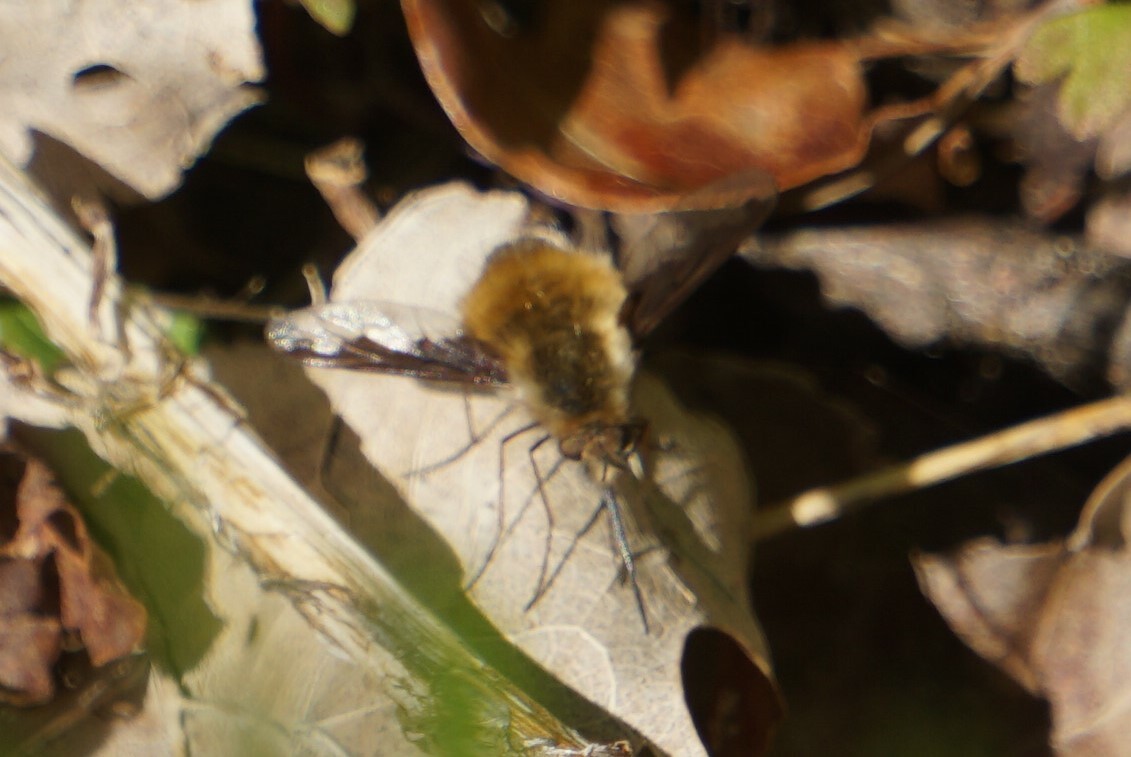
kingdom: Animalia
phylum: Arthropoda
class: Insecta
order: Diptera
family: Bombyliidae
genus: Bombylius
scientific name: Bombylius major
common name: Bee fly
